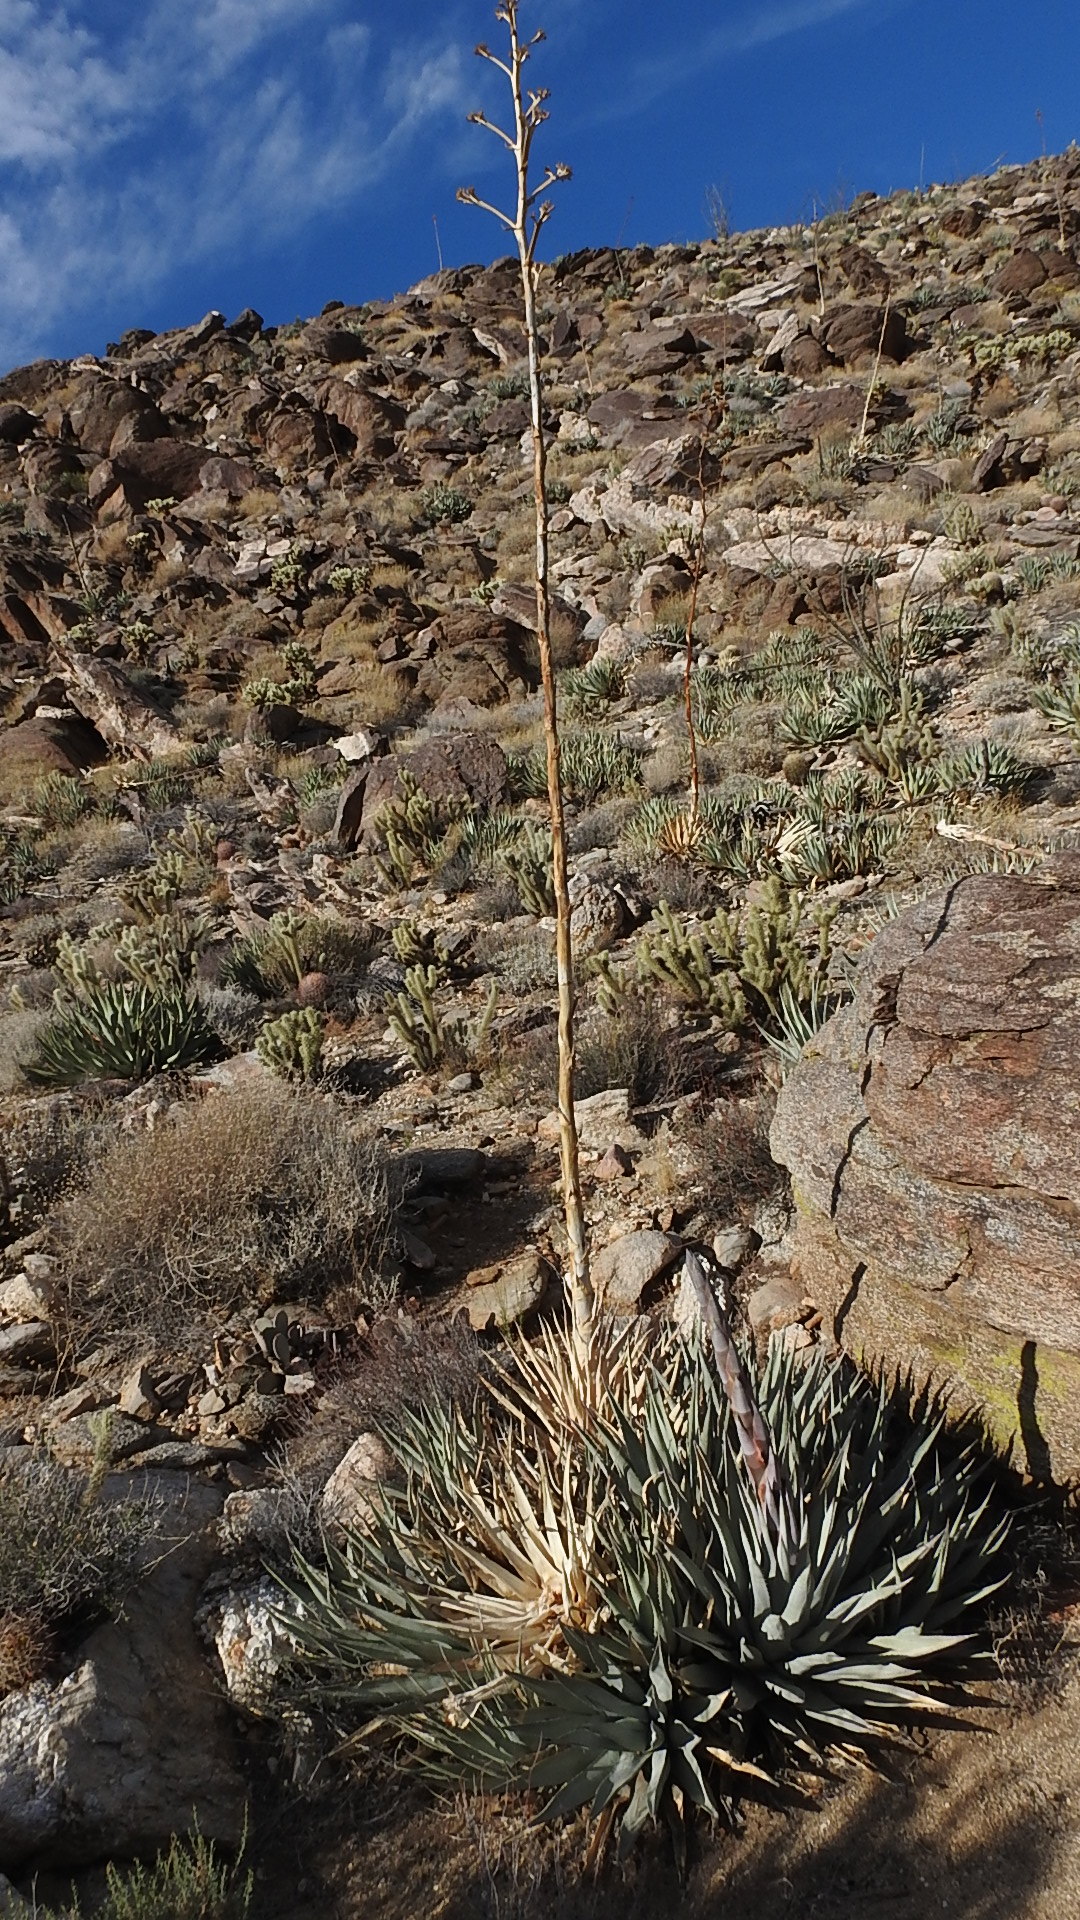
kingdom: Plantae
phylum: Tracheophyta
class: Liliopsida
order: Asparagales
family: Asparagaceae
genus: Agave
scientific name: Agave deserti
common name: Desert agave
